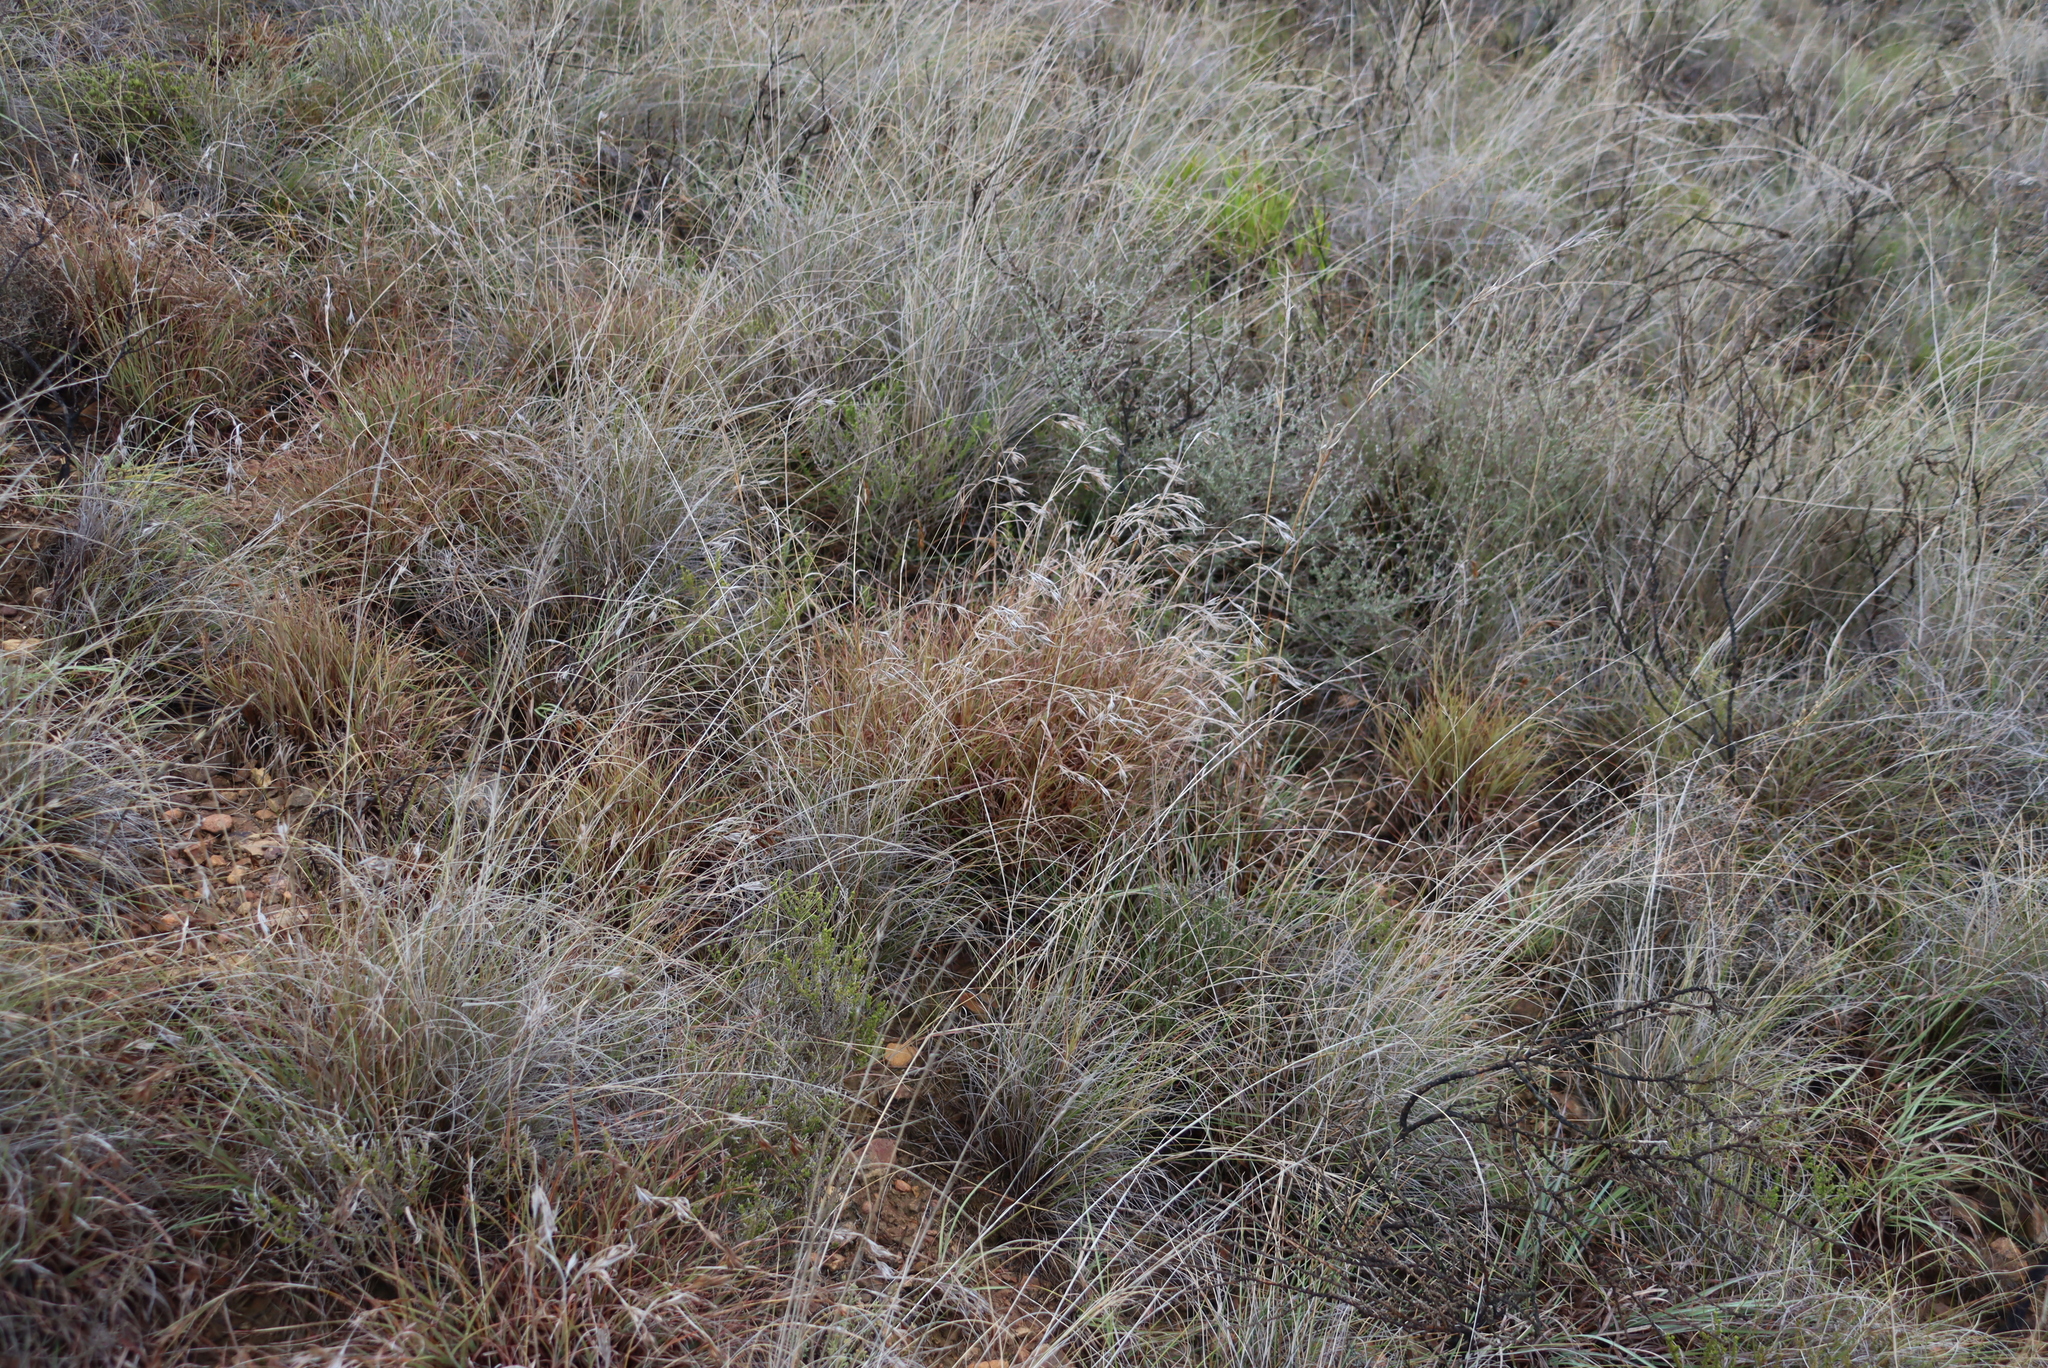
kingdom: Plantae
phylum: Tracheophyta
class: Liliopsida
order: Poales
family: Poaceae
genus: Themeda
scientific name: Themeda triandra
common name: Kangaroo grass
